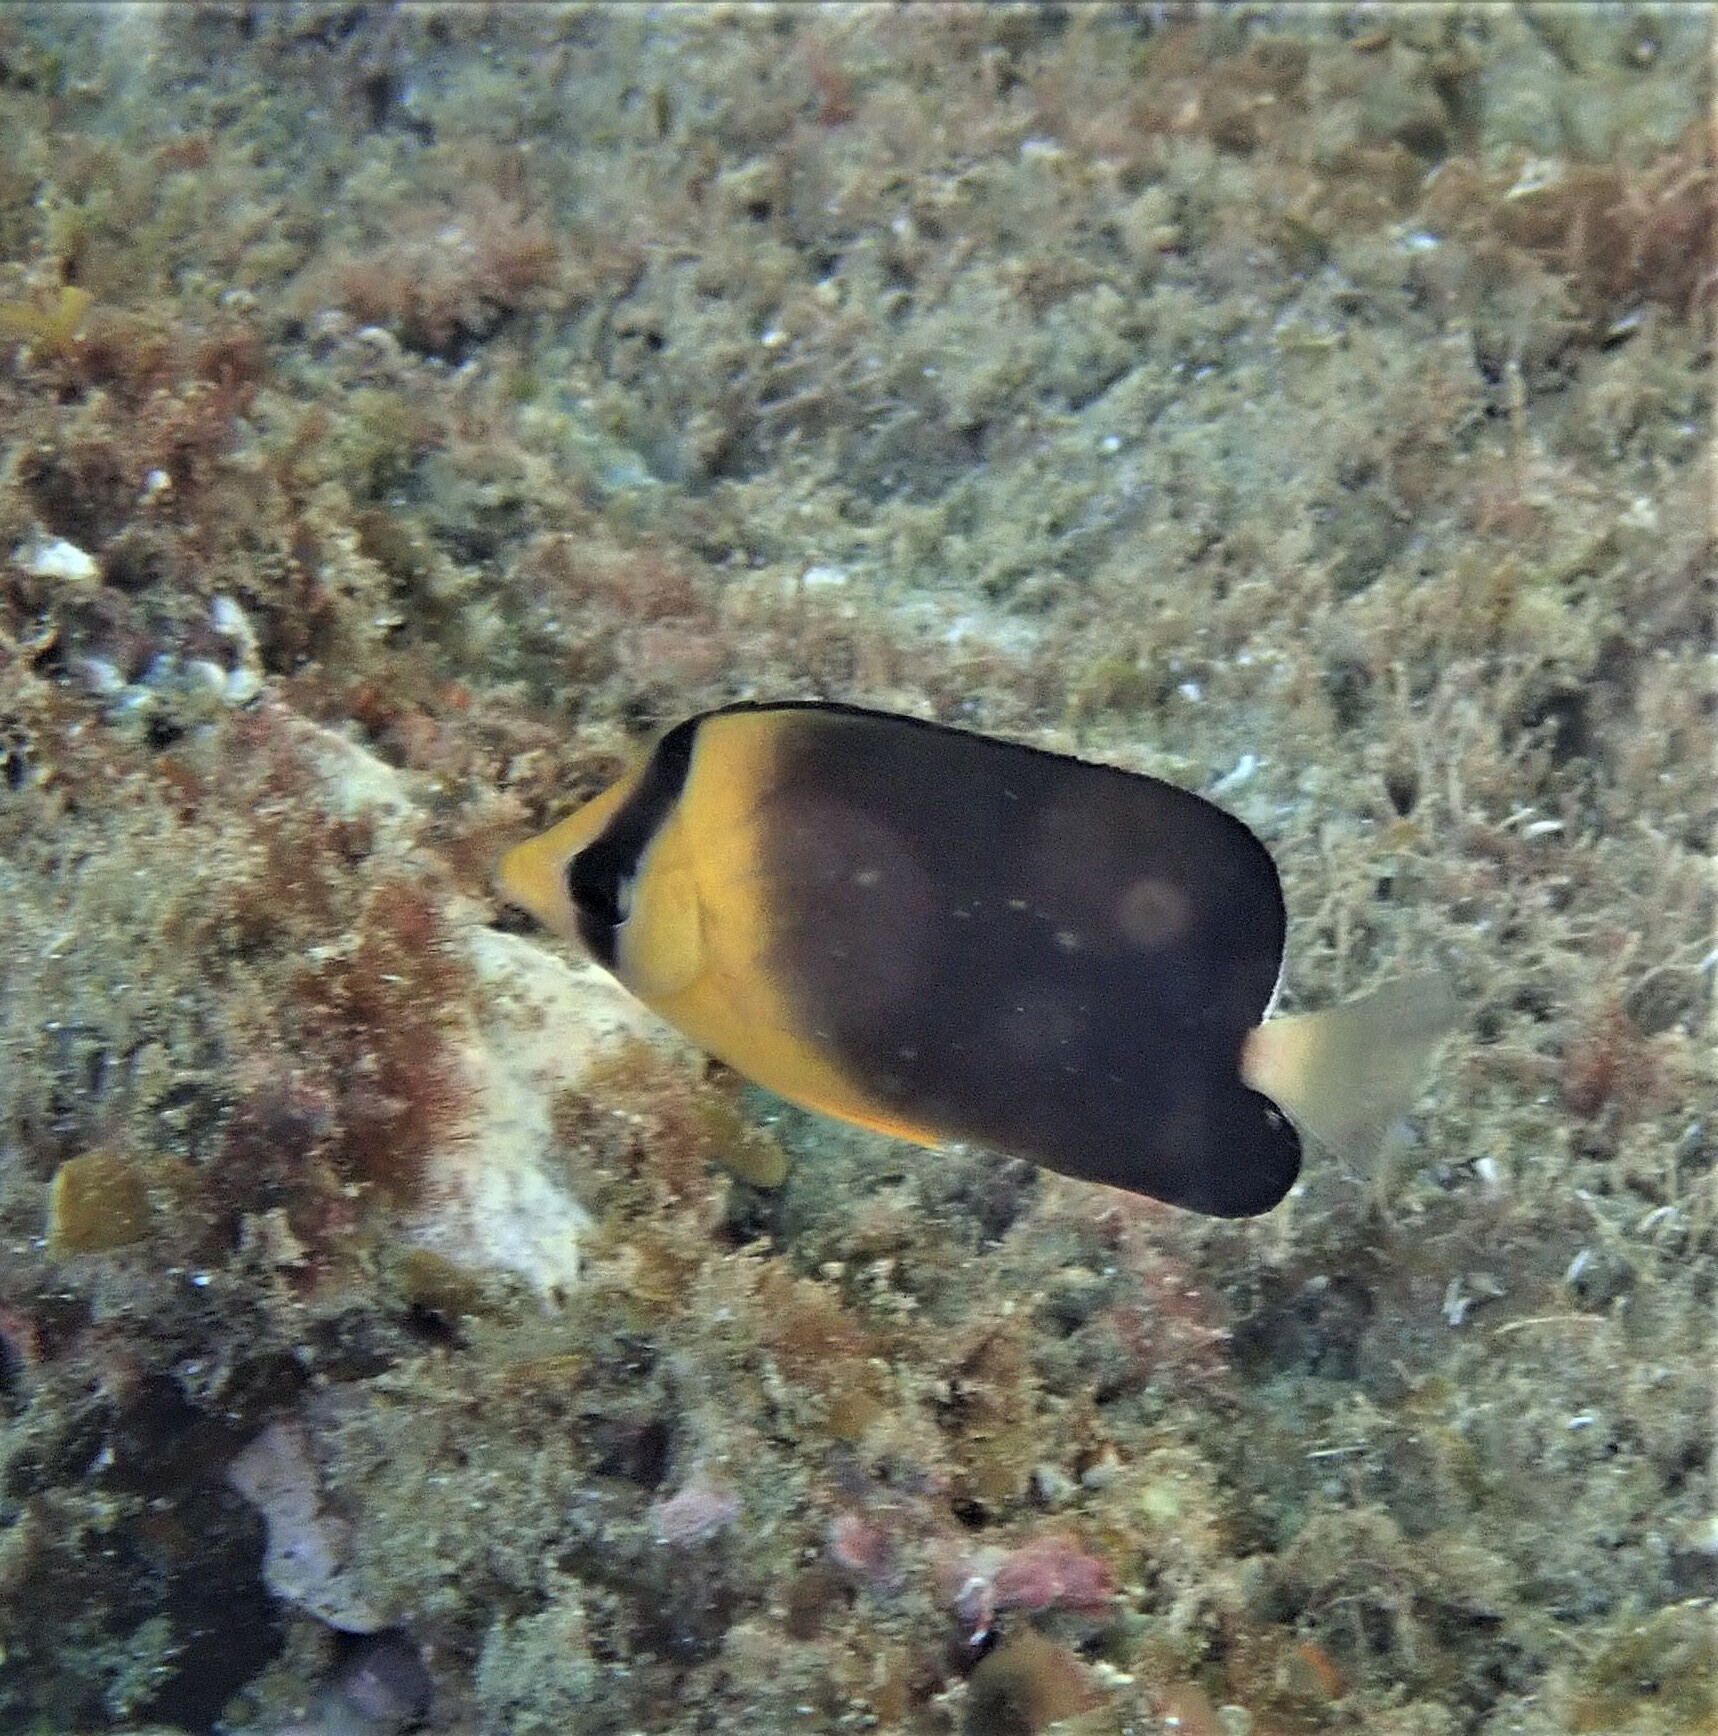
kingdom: Animalia
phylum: Chordata
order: Perciformes
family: Chaetodontidae
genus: Chaetodon
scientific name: Chaetodon blackburnii
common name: Blackburn's butterflyfish
